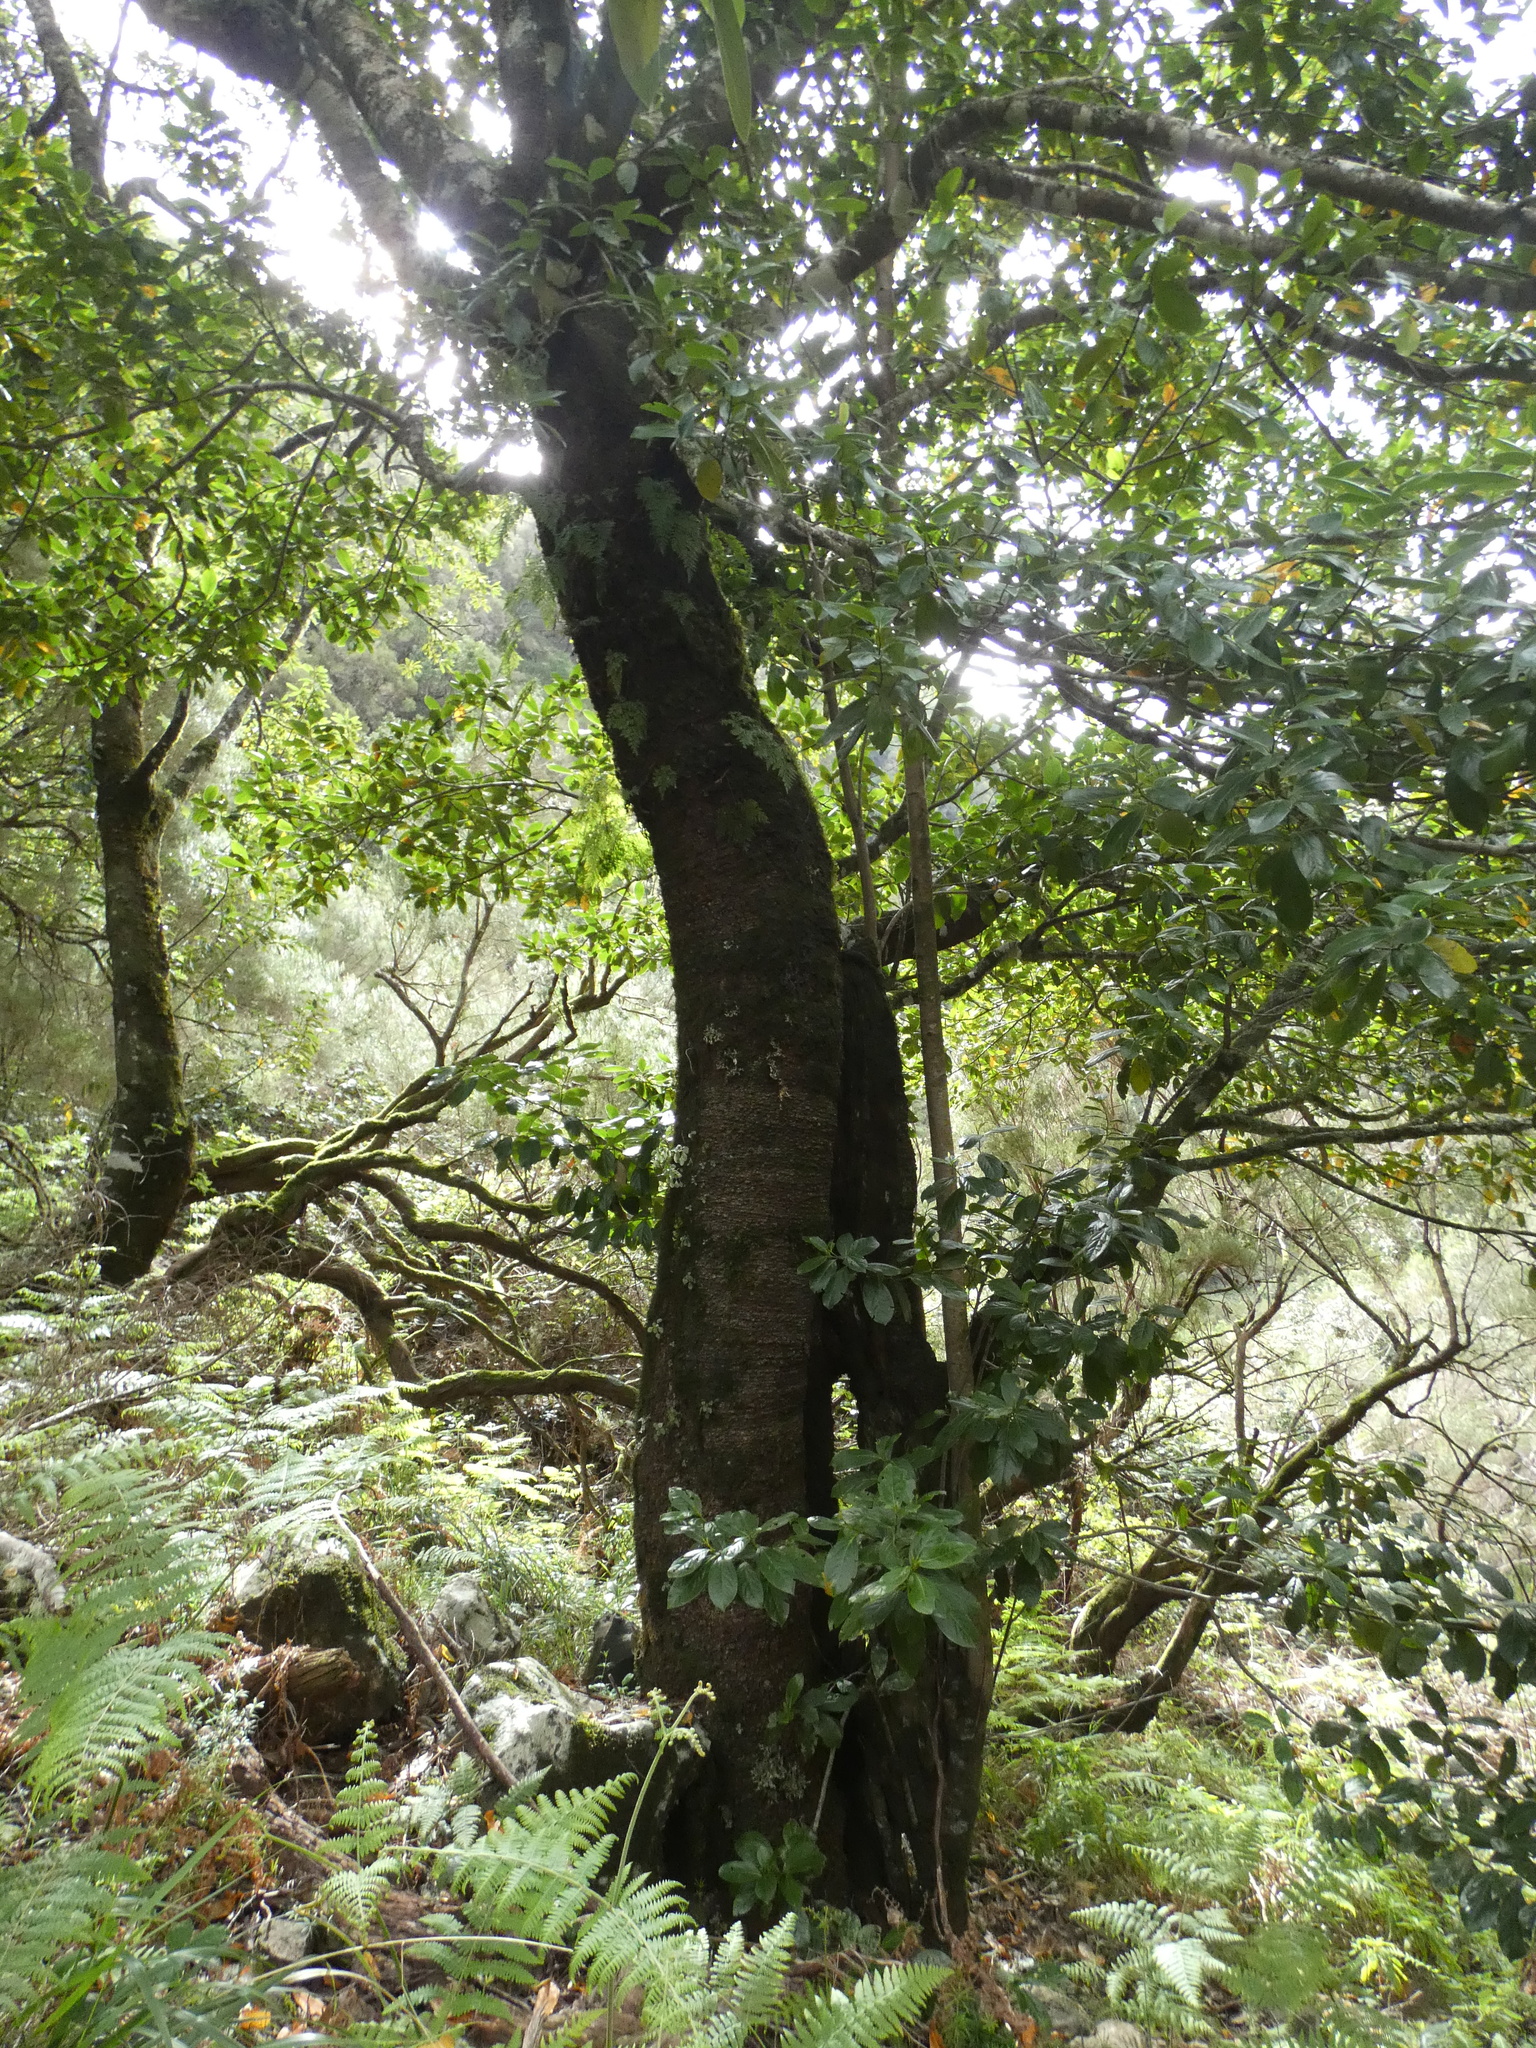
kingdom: Plantae
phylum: Tracheophyta
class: Magnoliopsida
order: Laurales
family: Lauraceae
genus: Mespilodaphne
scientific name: Mespilodaphne foetens
